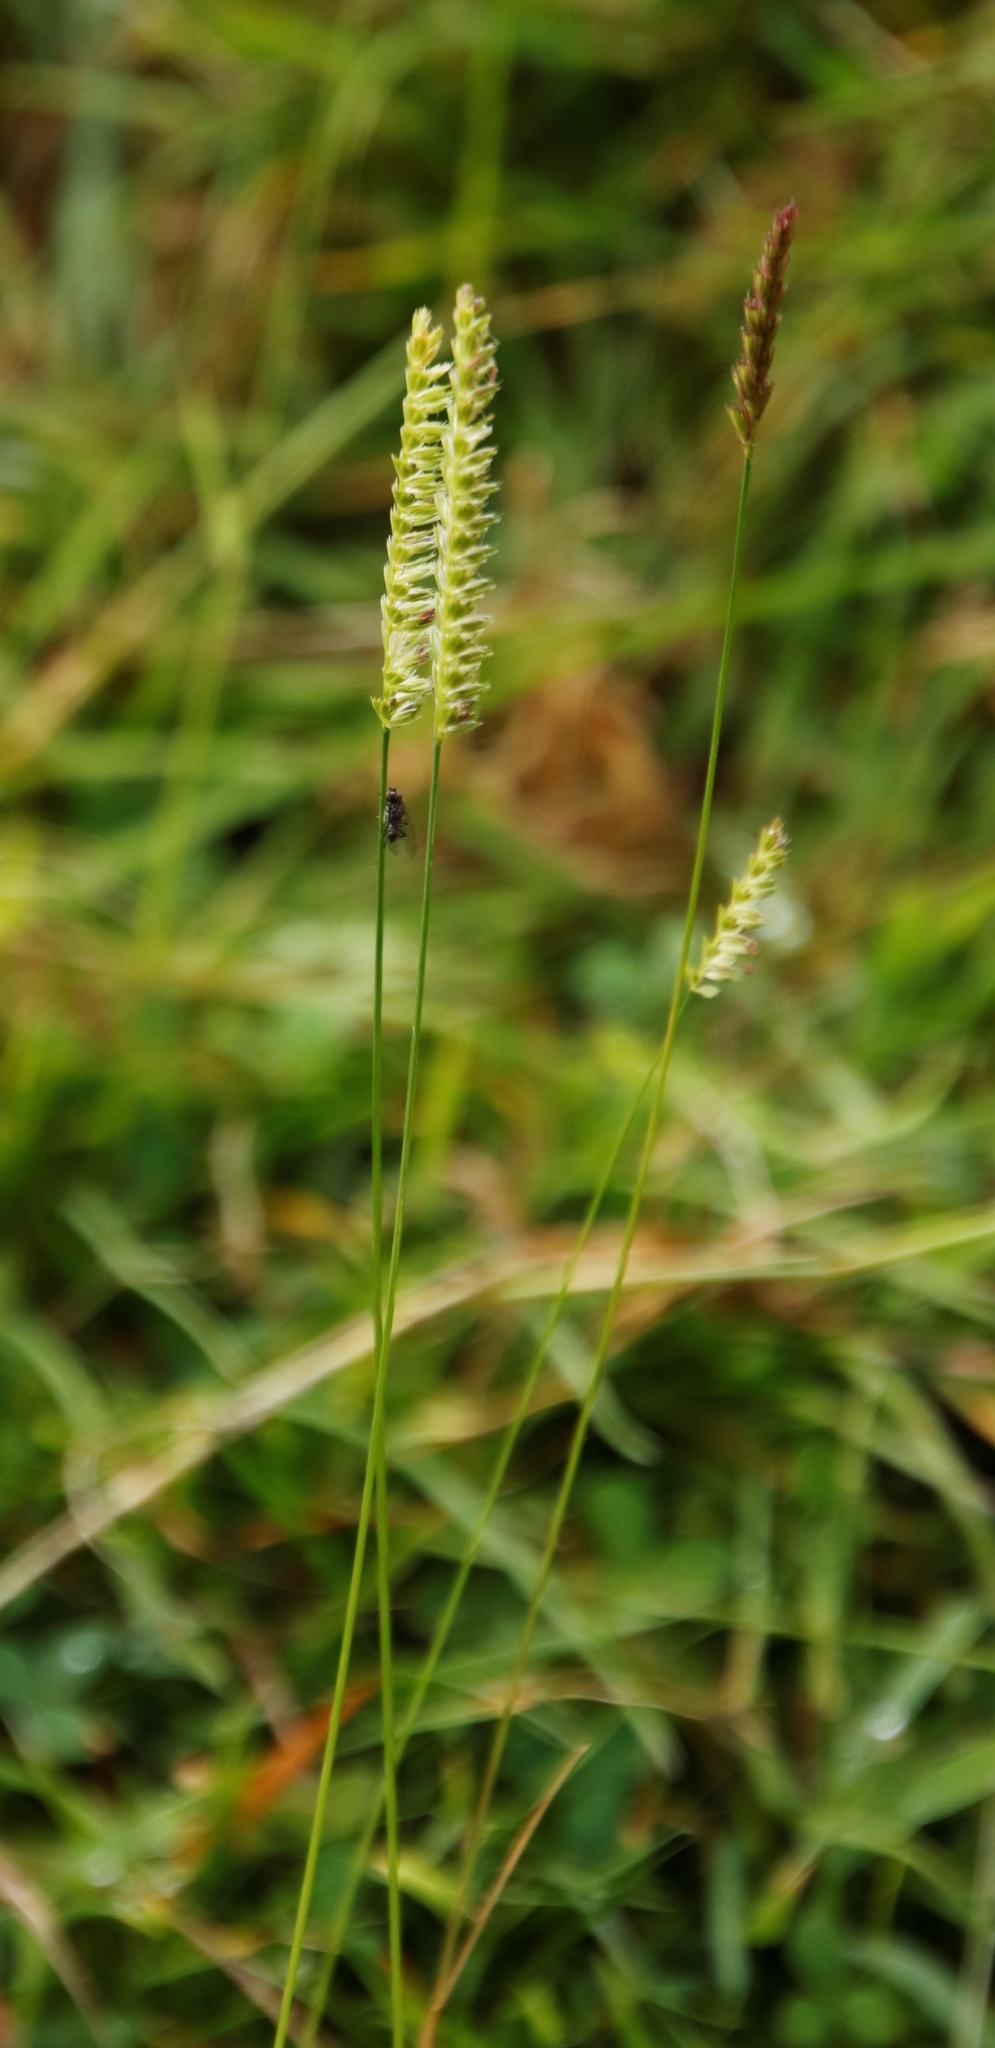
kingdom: Plantae
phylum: Tracheophyta
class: Liliopsida
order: Poales
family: Poaceae
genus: Cynosurus
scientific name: Cynosurus cristatus
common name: Crested dog's-tail
